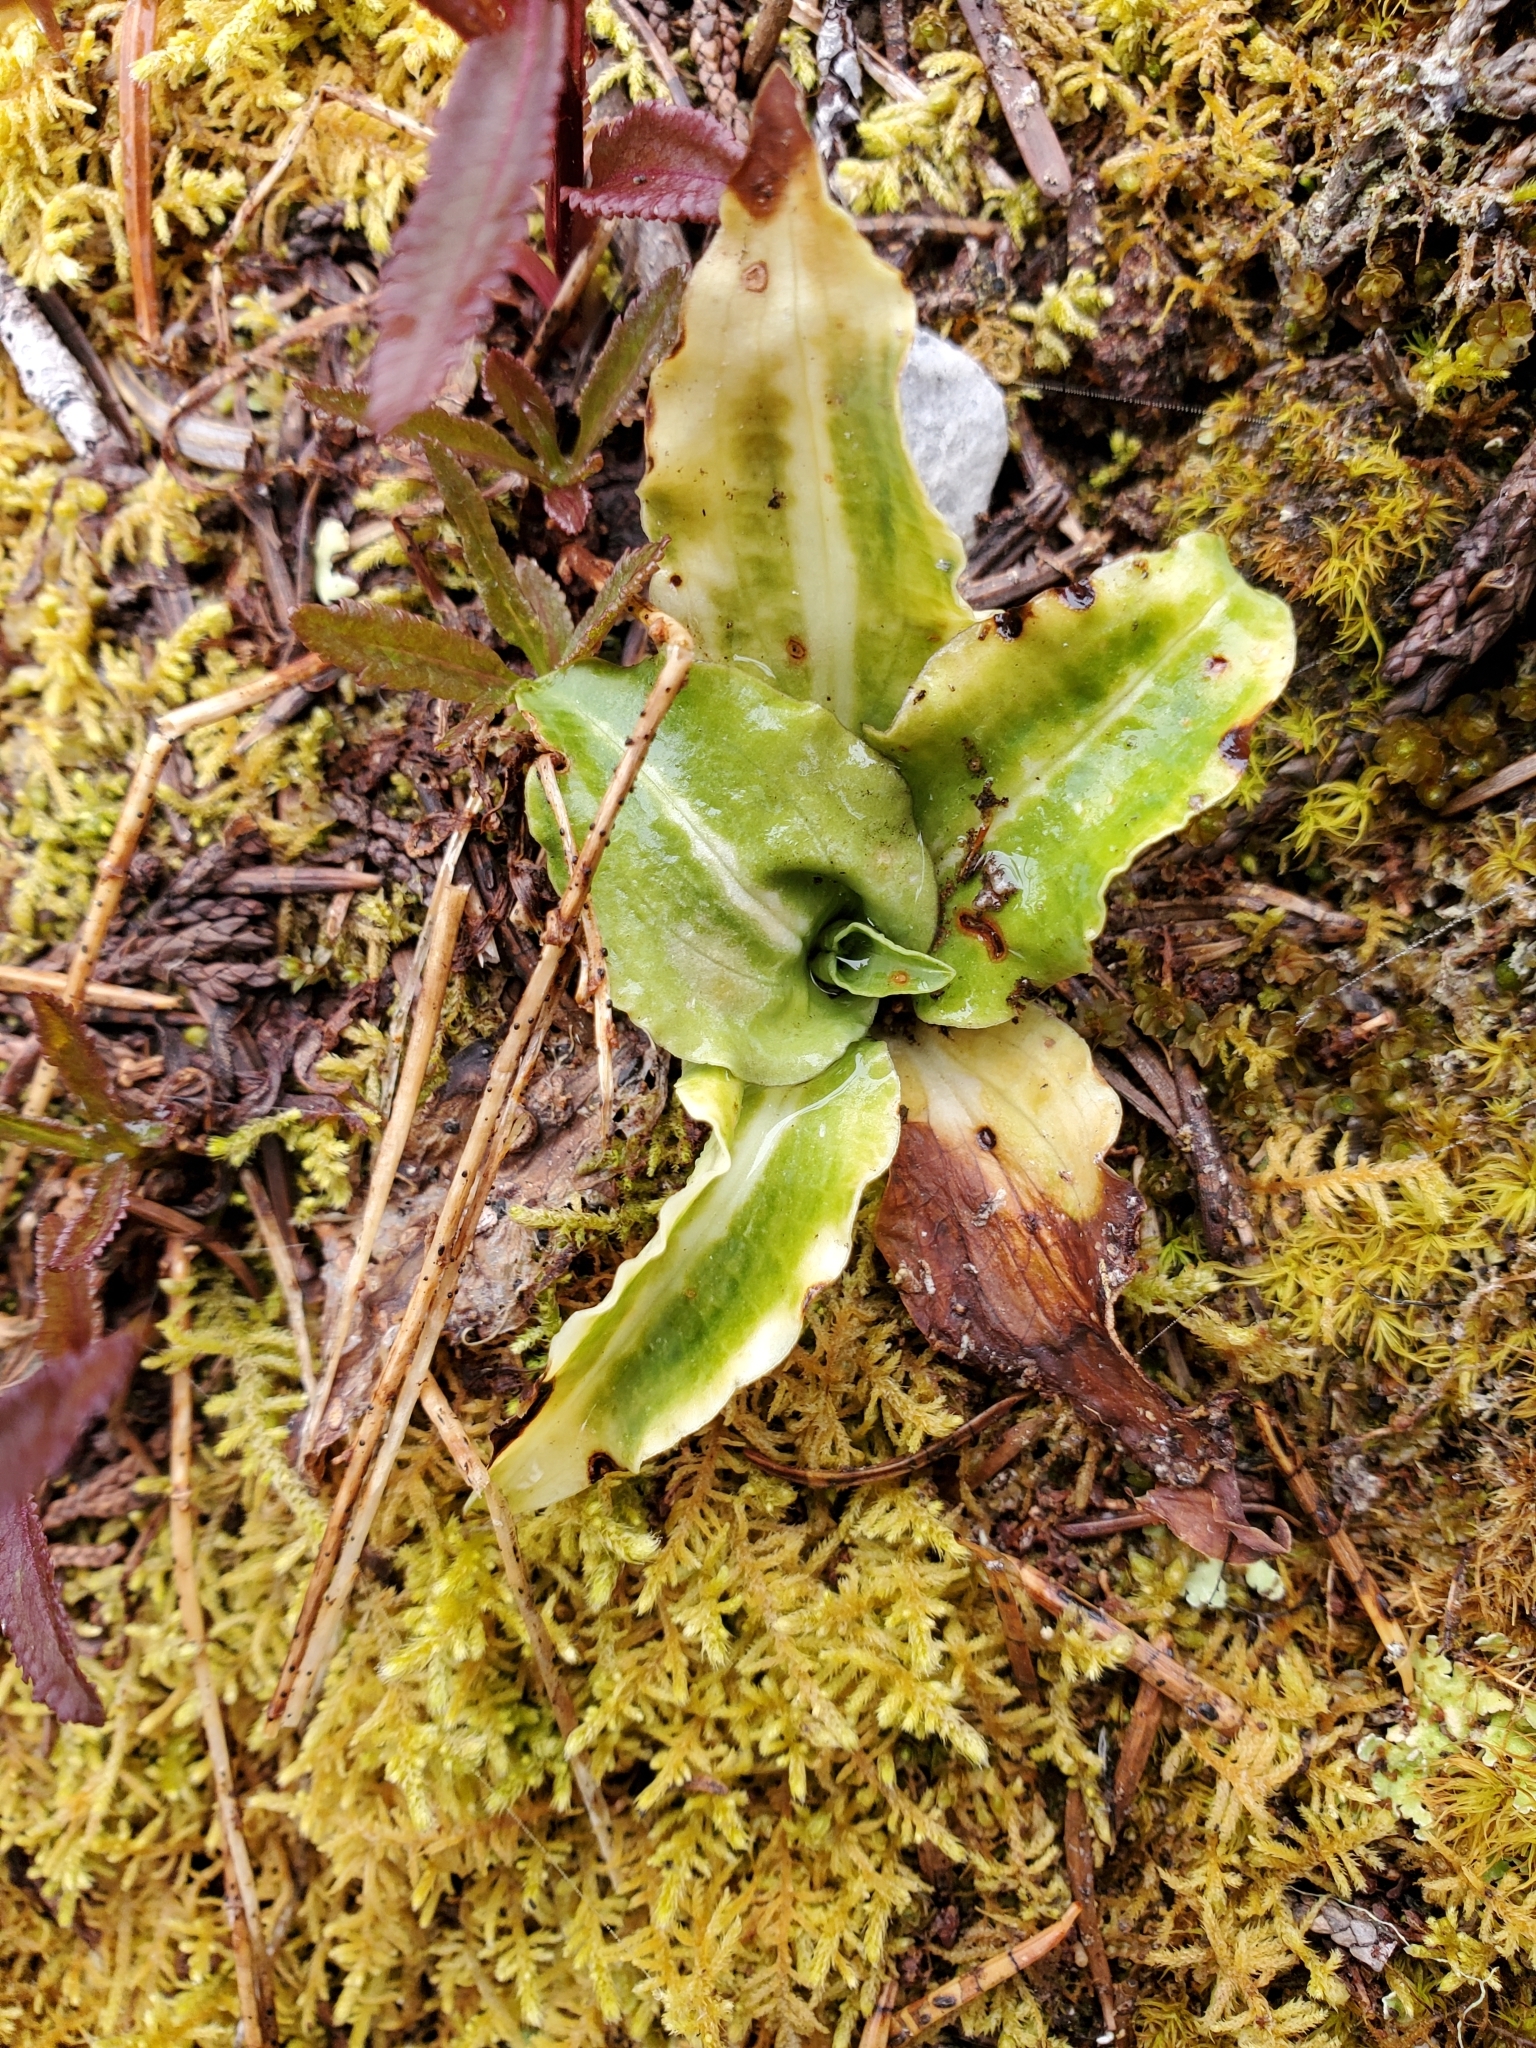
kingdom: Plantae
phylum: Tracheophyta
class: Liliopsida
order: Asparagales
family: Orchidaceae
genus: Goodyera
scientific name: Goodyera oblongifolia
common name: Giant rattlesnake-plantain
